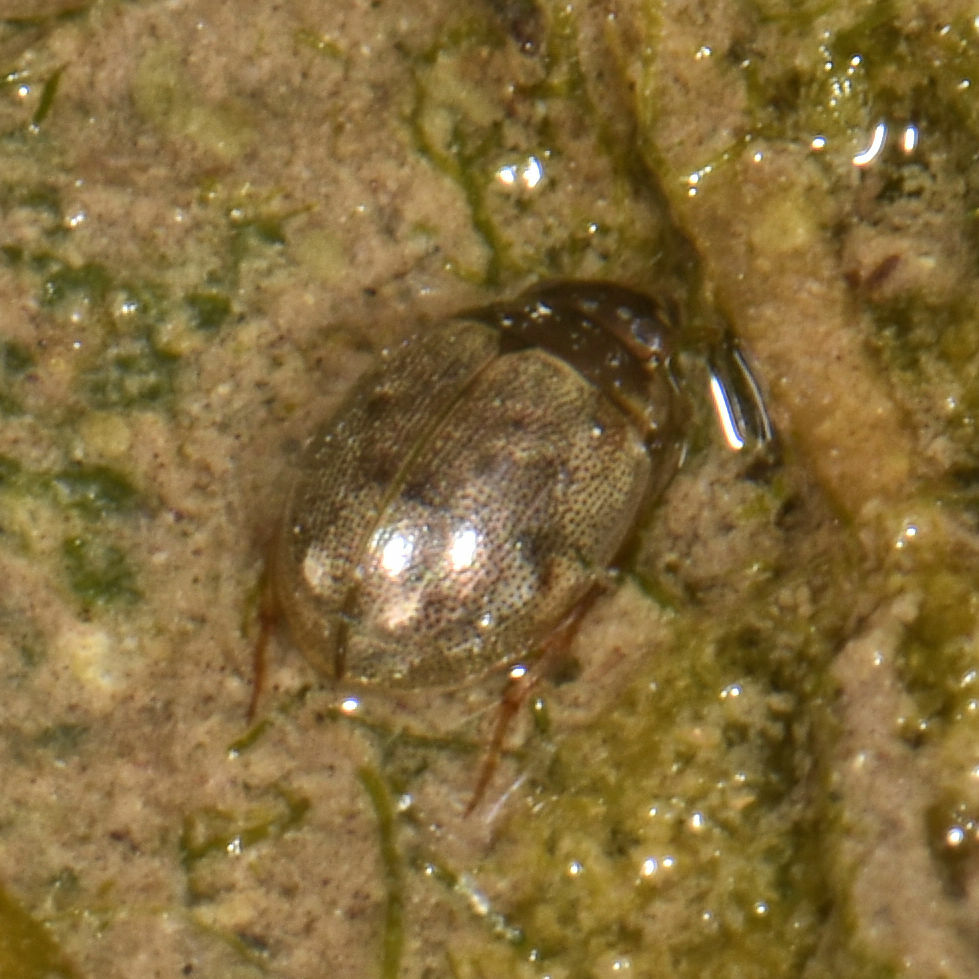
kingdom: Animalia
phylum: Arthropoda
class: Insecta
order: Coleoptera
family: Hydrophilidae
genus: Laccobius
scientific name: Laccobius
